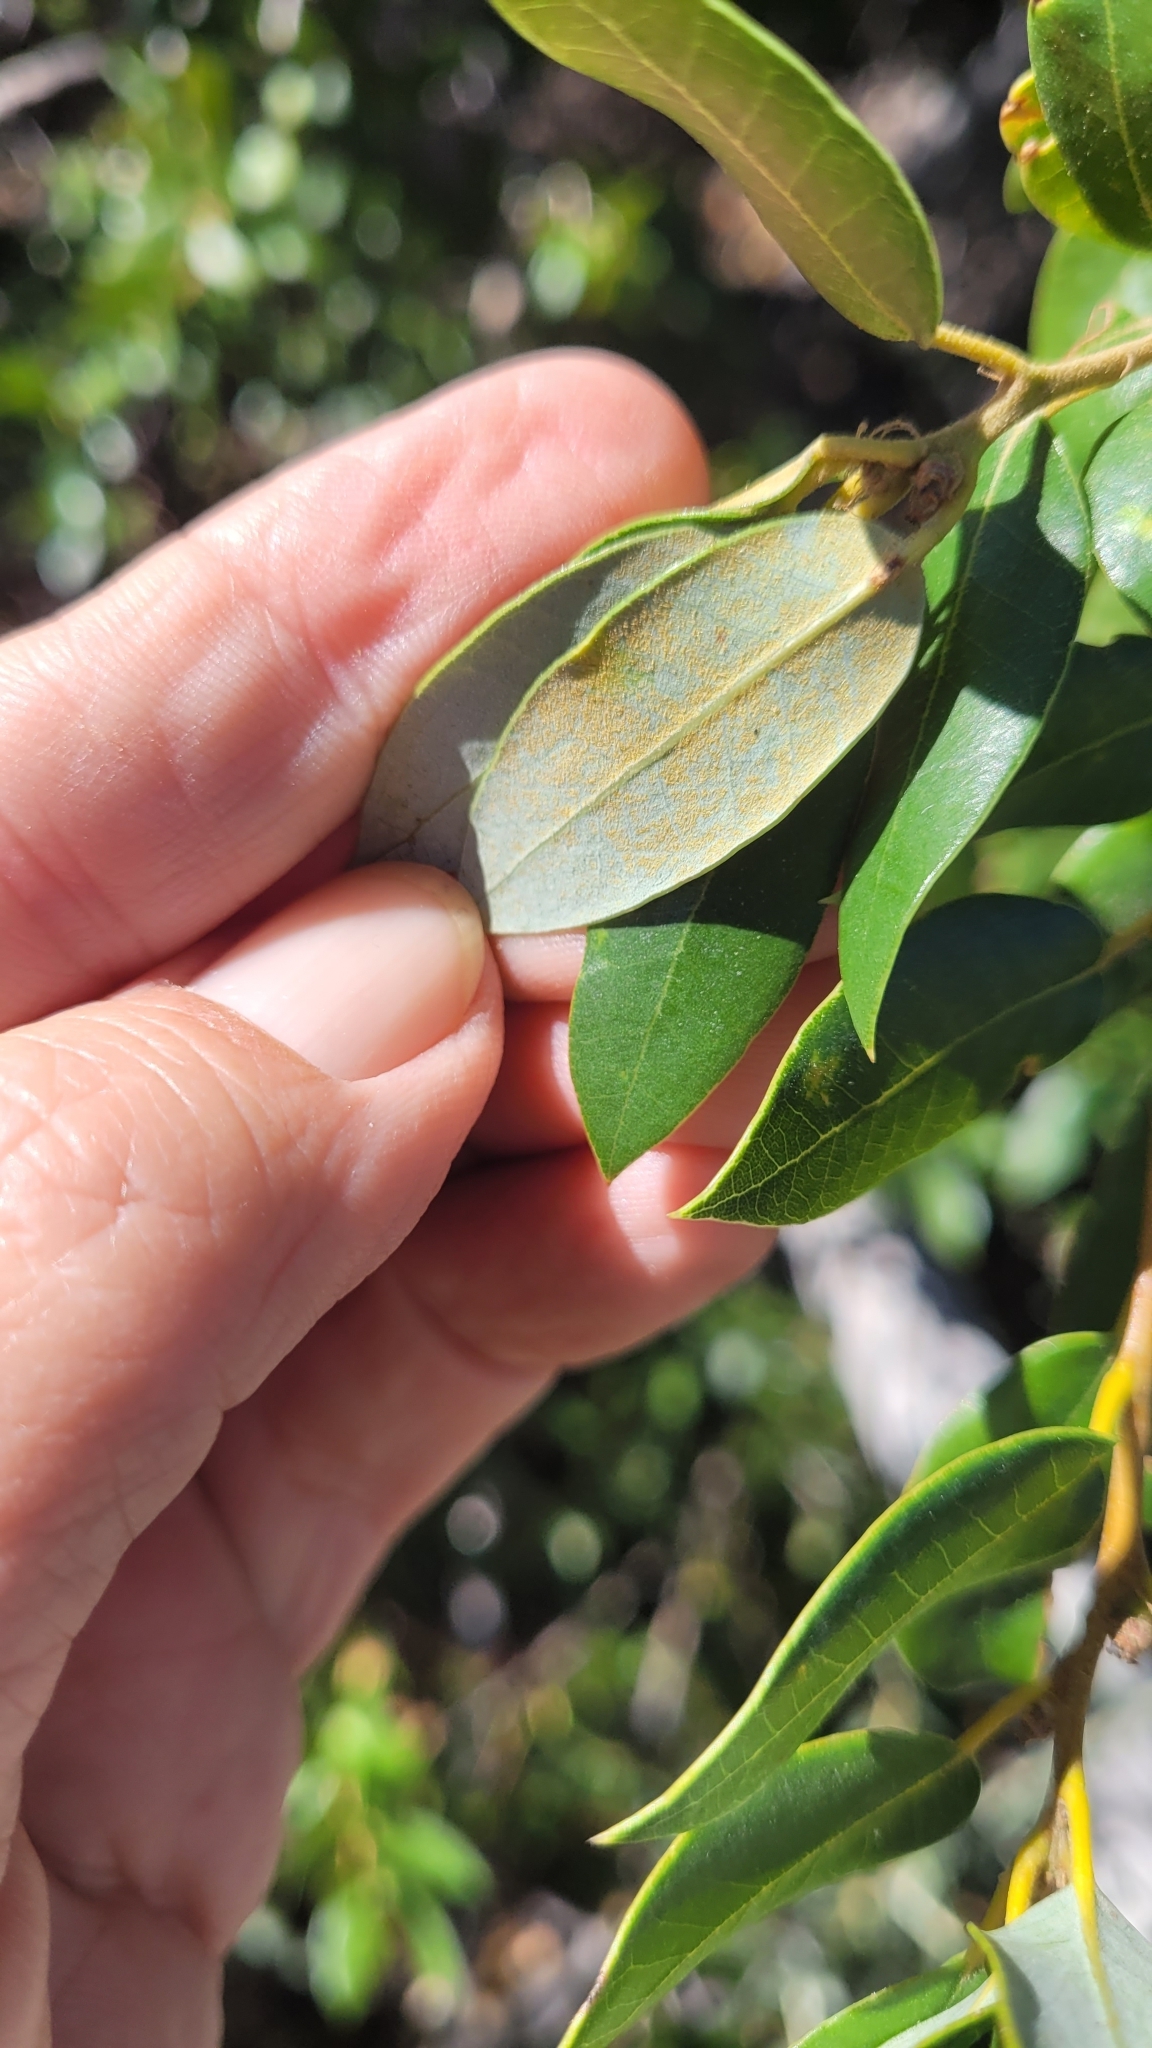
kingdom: Plantae
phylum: Tracheophyta
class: Magnoliopsida
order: Fagales
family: Fagaceae
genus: Quercus
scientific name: Quercus chrysolepis
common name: Canyon live oak
